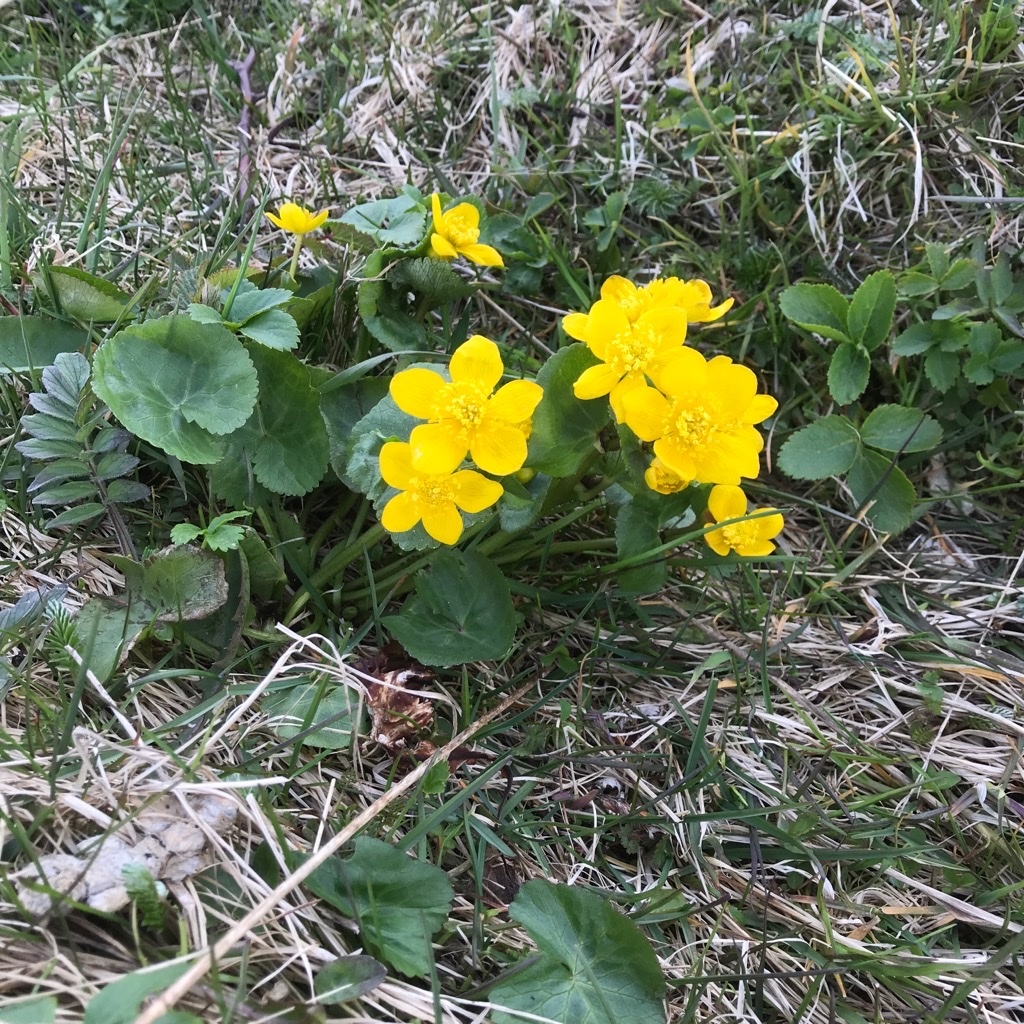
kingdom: Plantae
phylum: Tracheophyta
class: Magnoliopsida
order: Ranunculales
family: Ranunculaceae
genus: Caltha
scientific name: Caltha palustris
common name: Marsh marigold
